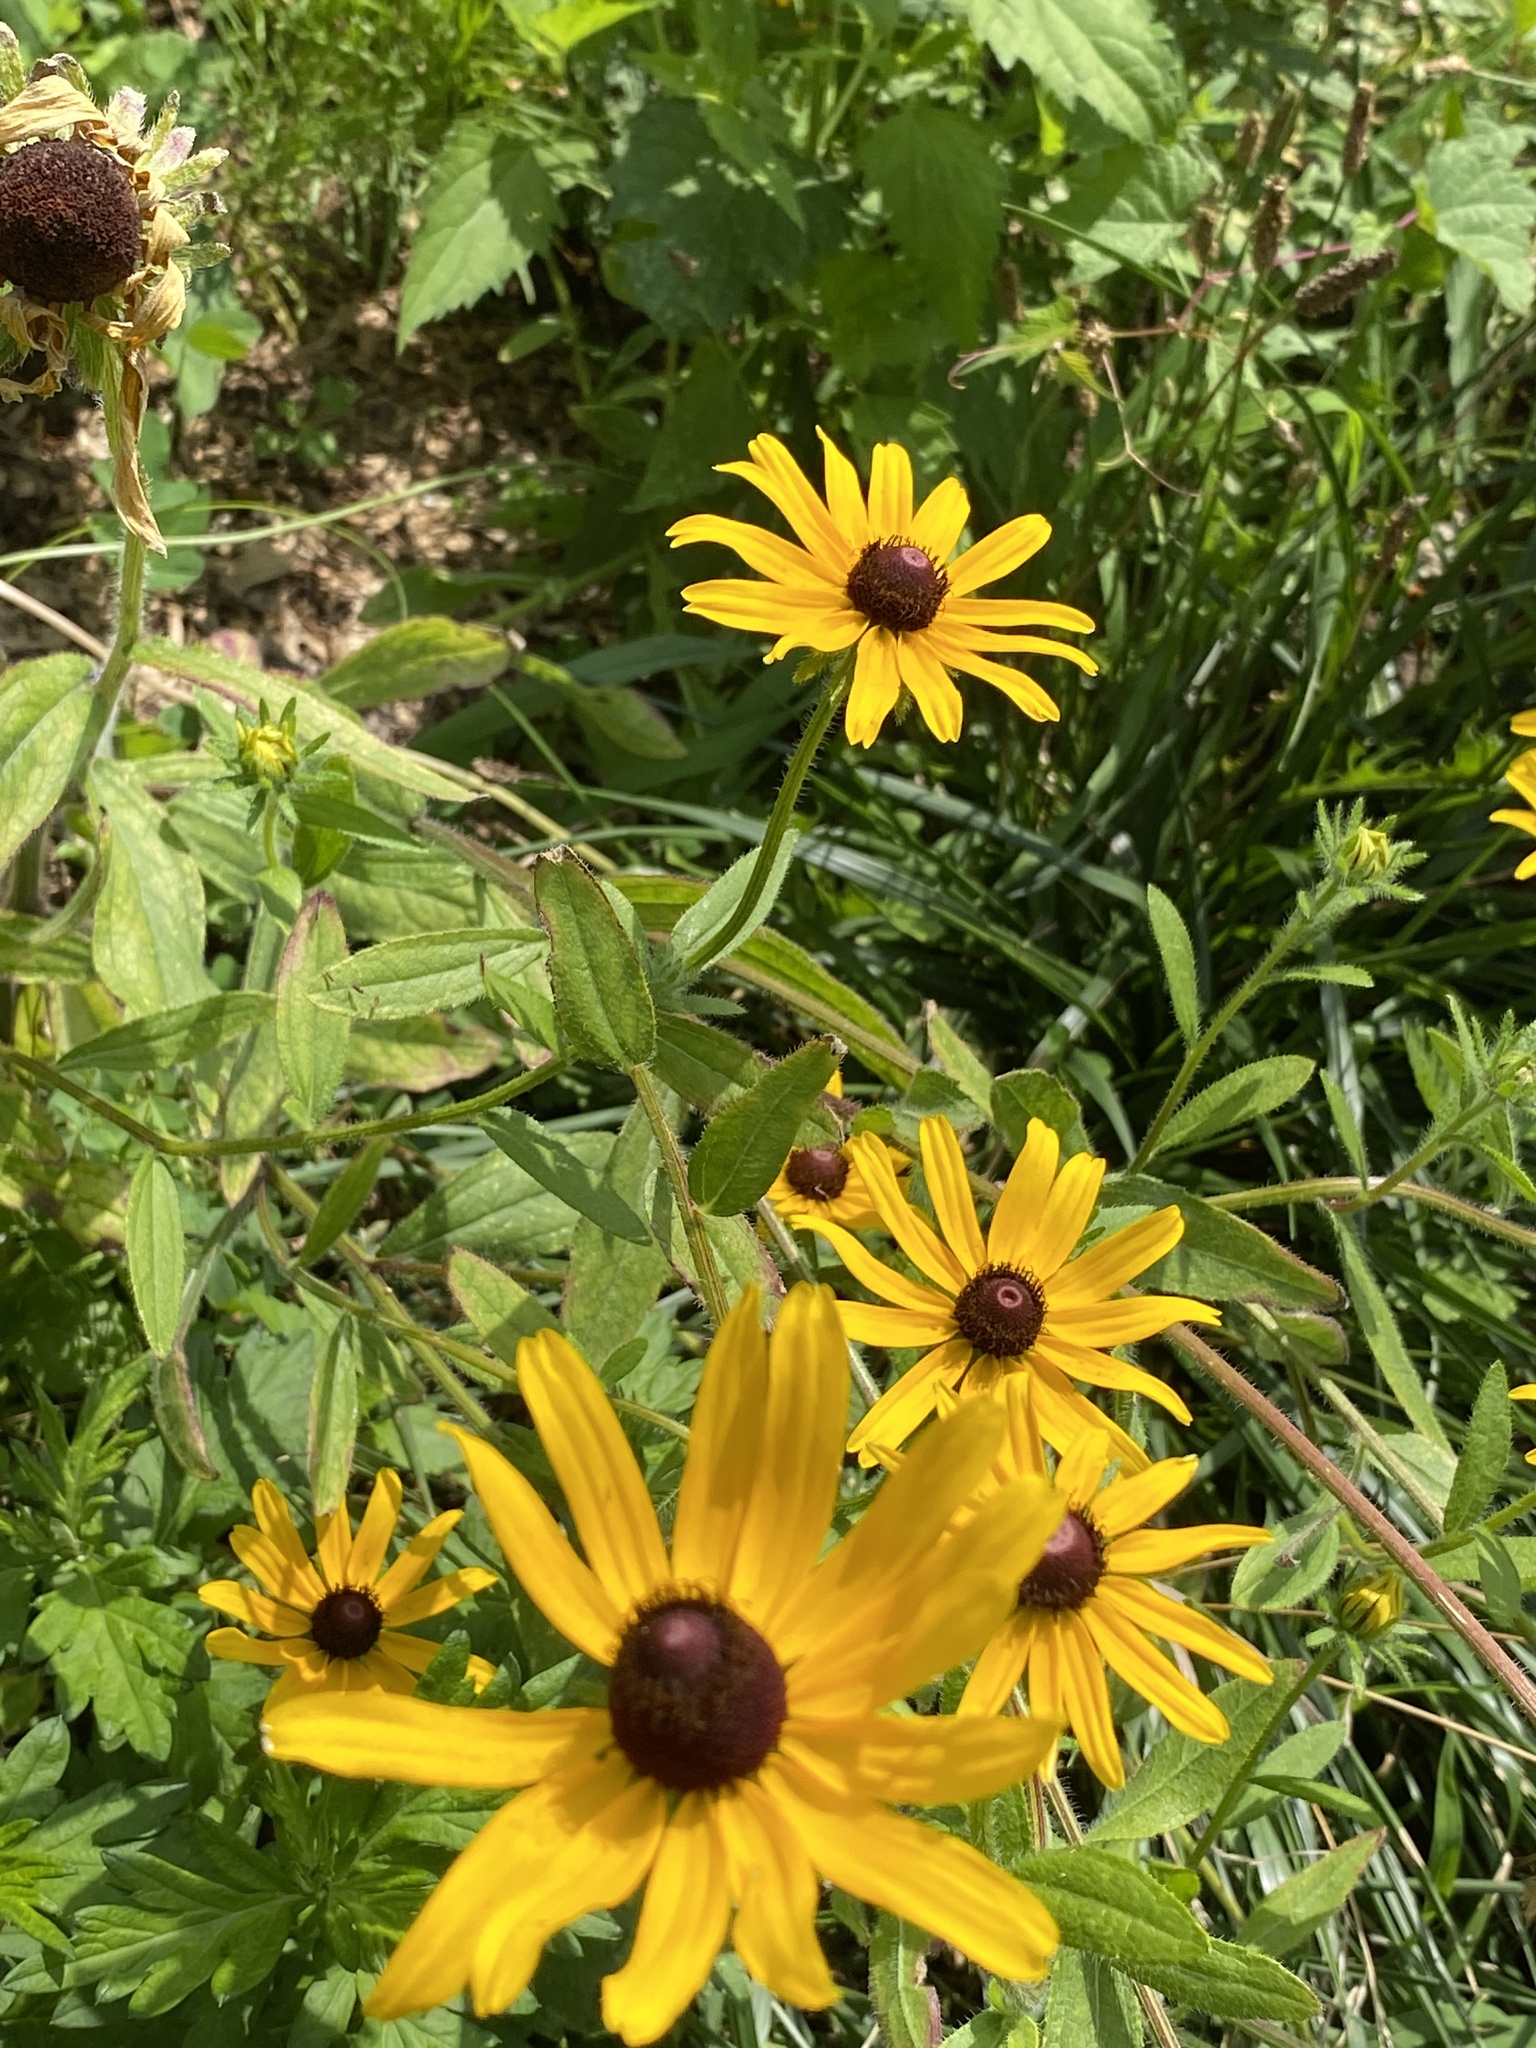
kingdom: Plantae
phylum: Tracheophyta
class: Magnoliopsida
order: Asterales
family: Asteraceae
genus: Rudbeckia
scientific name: Rudbeckia hirta
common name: Black-eyed-susan
